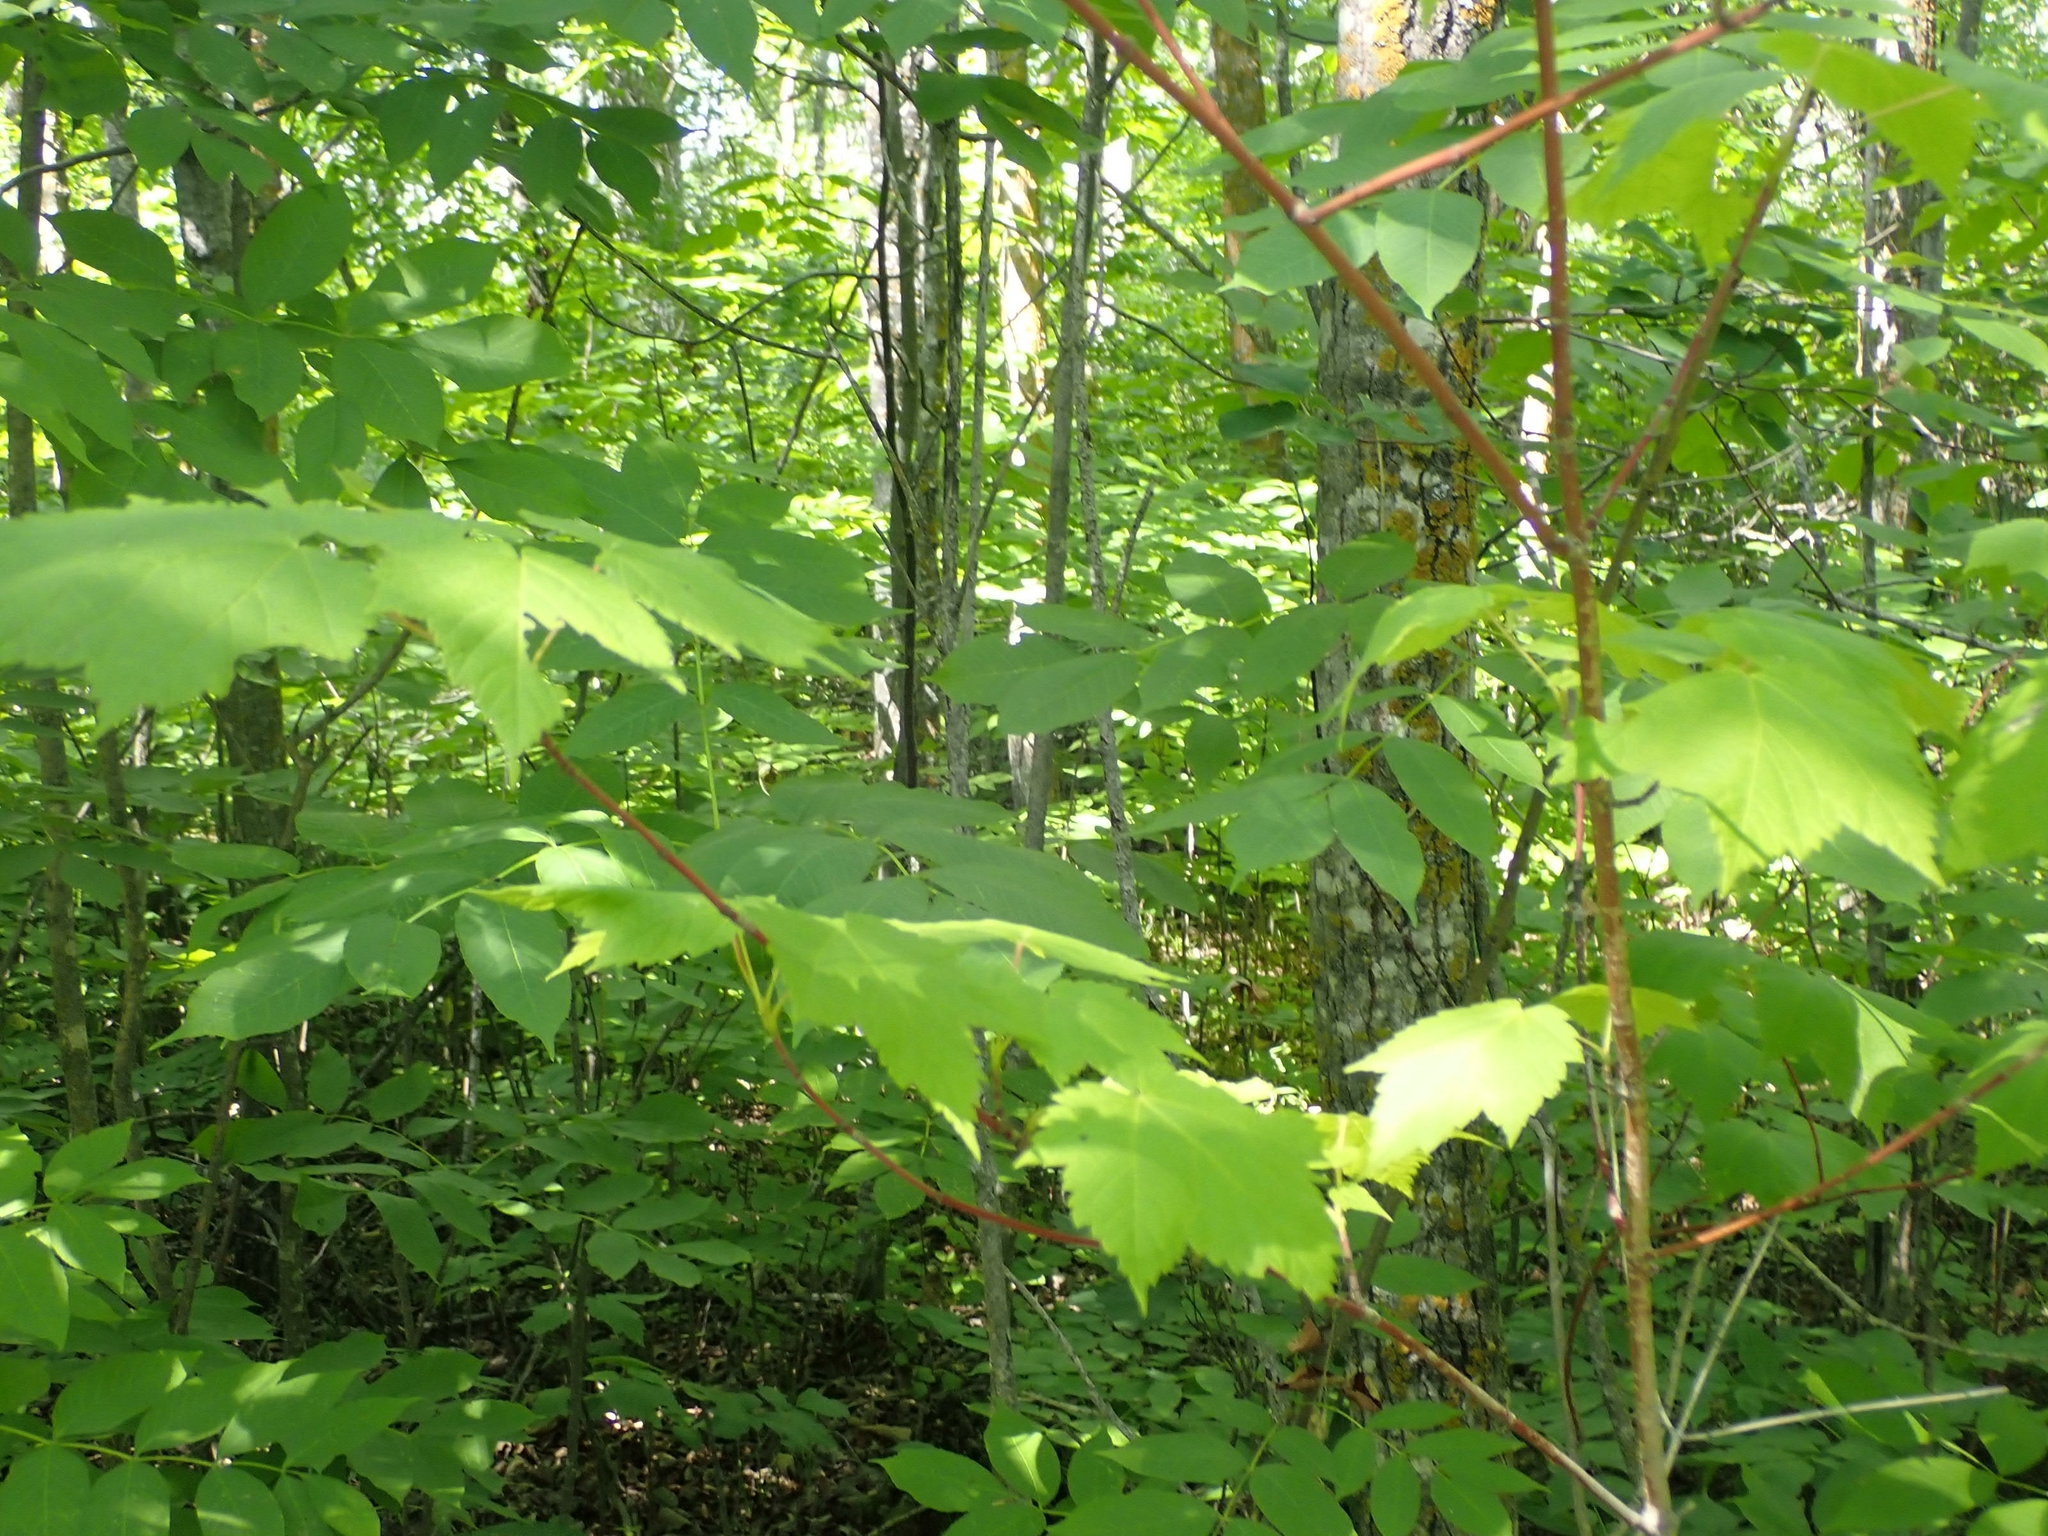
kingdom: Plantae
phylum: Tracheophyta
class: Magnoliopsida
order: Sapindales
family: Sapindaceae
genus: Acer
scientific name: Acer spicatum
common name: Mountain maple
